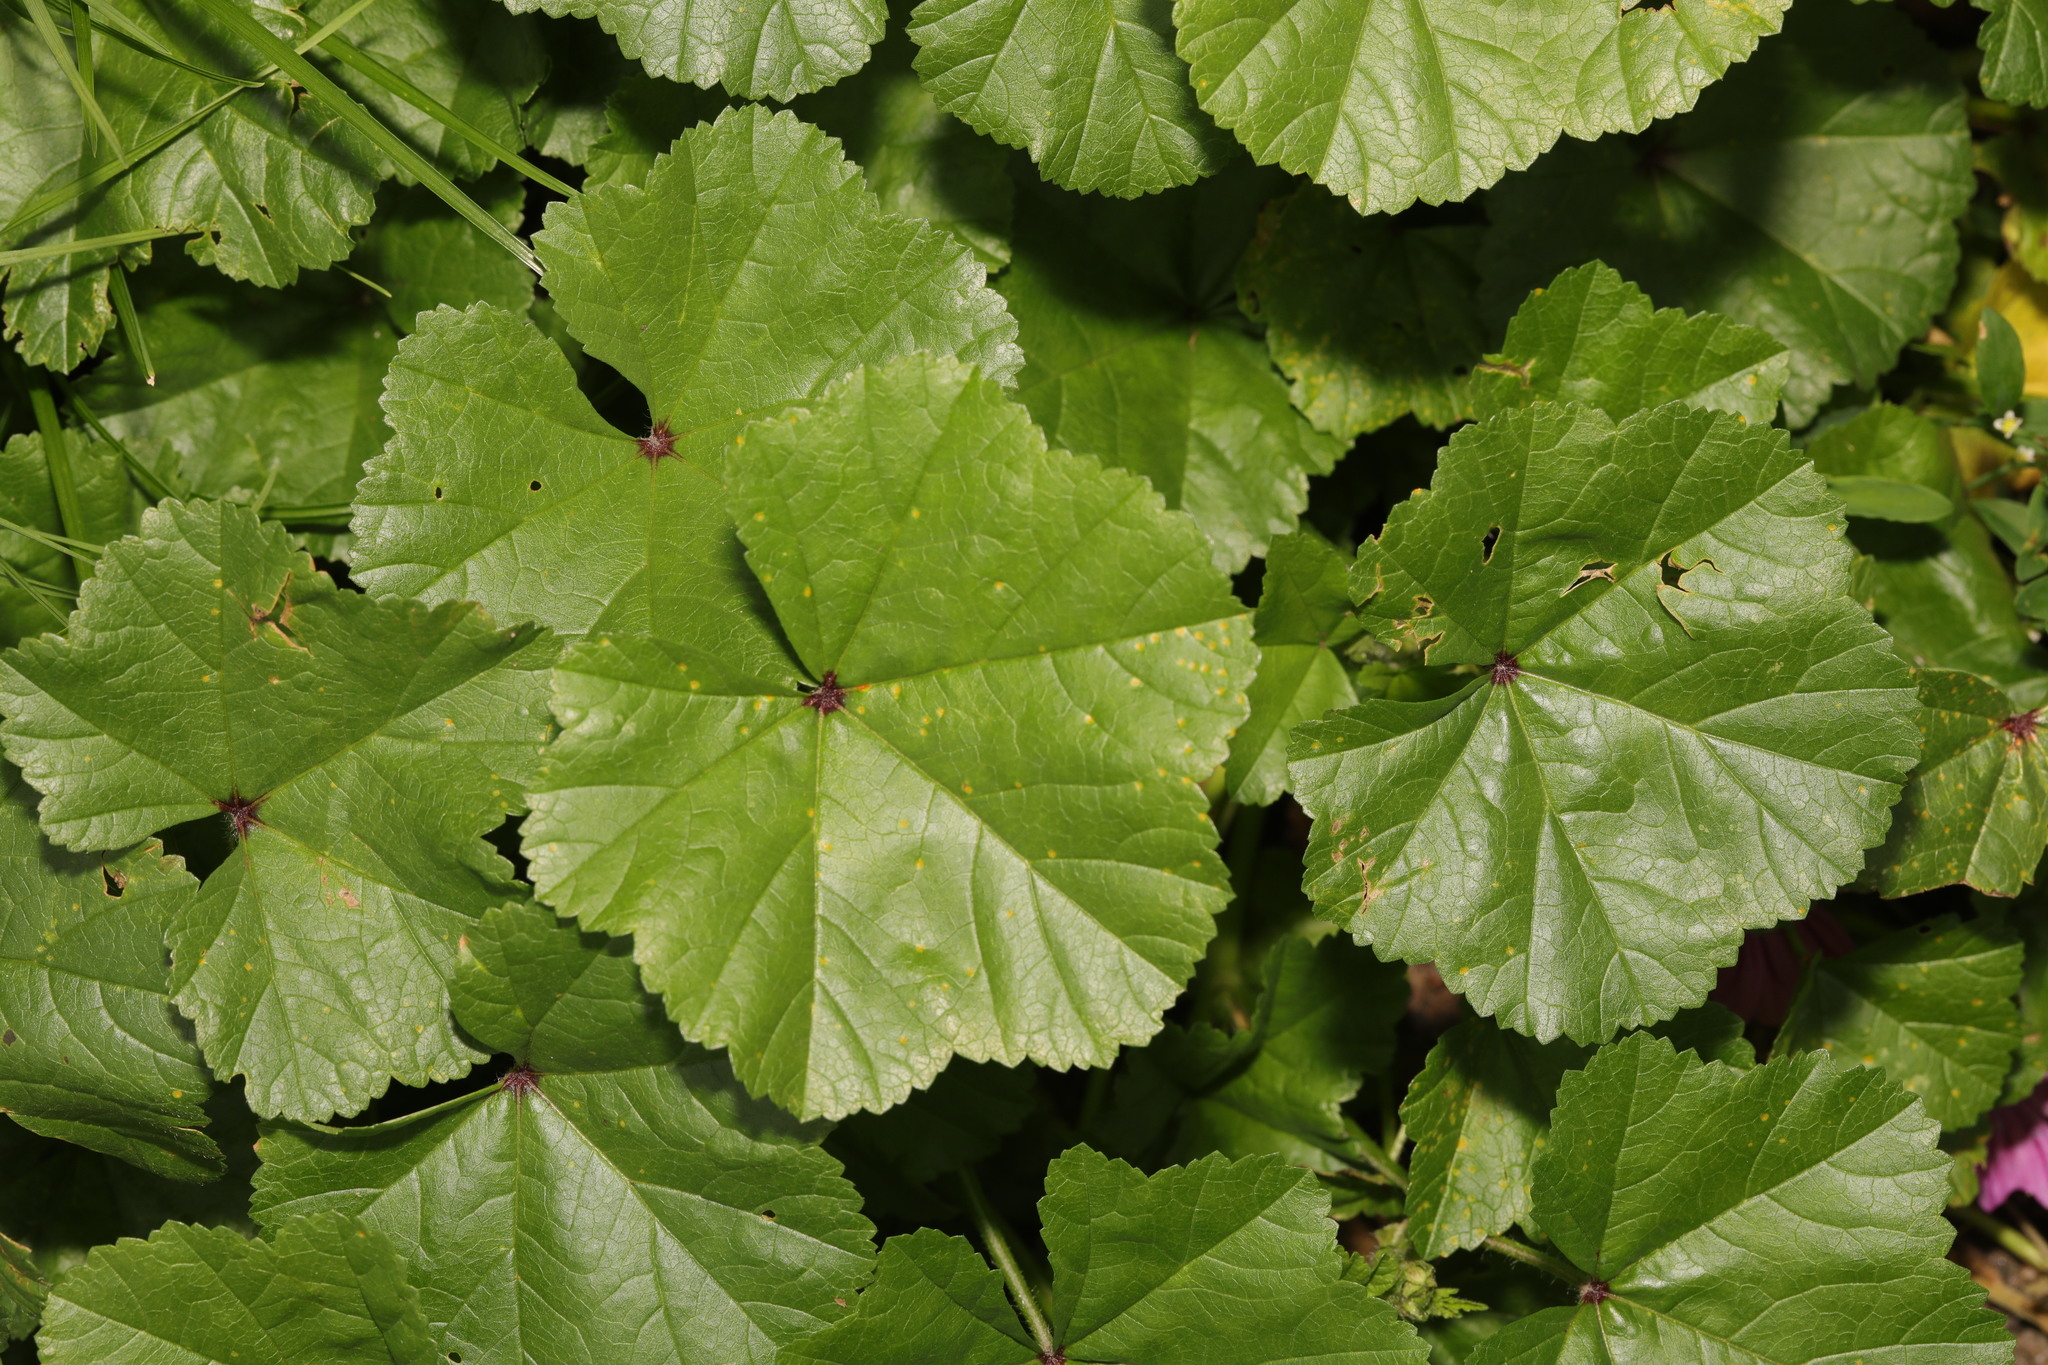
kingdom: Plantae
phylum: Tracheophyta
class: Magnoliopsida
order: Malvales
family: Malvaceae
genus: Malva
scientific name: Malva sylvestris
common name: Common mallow
